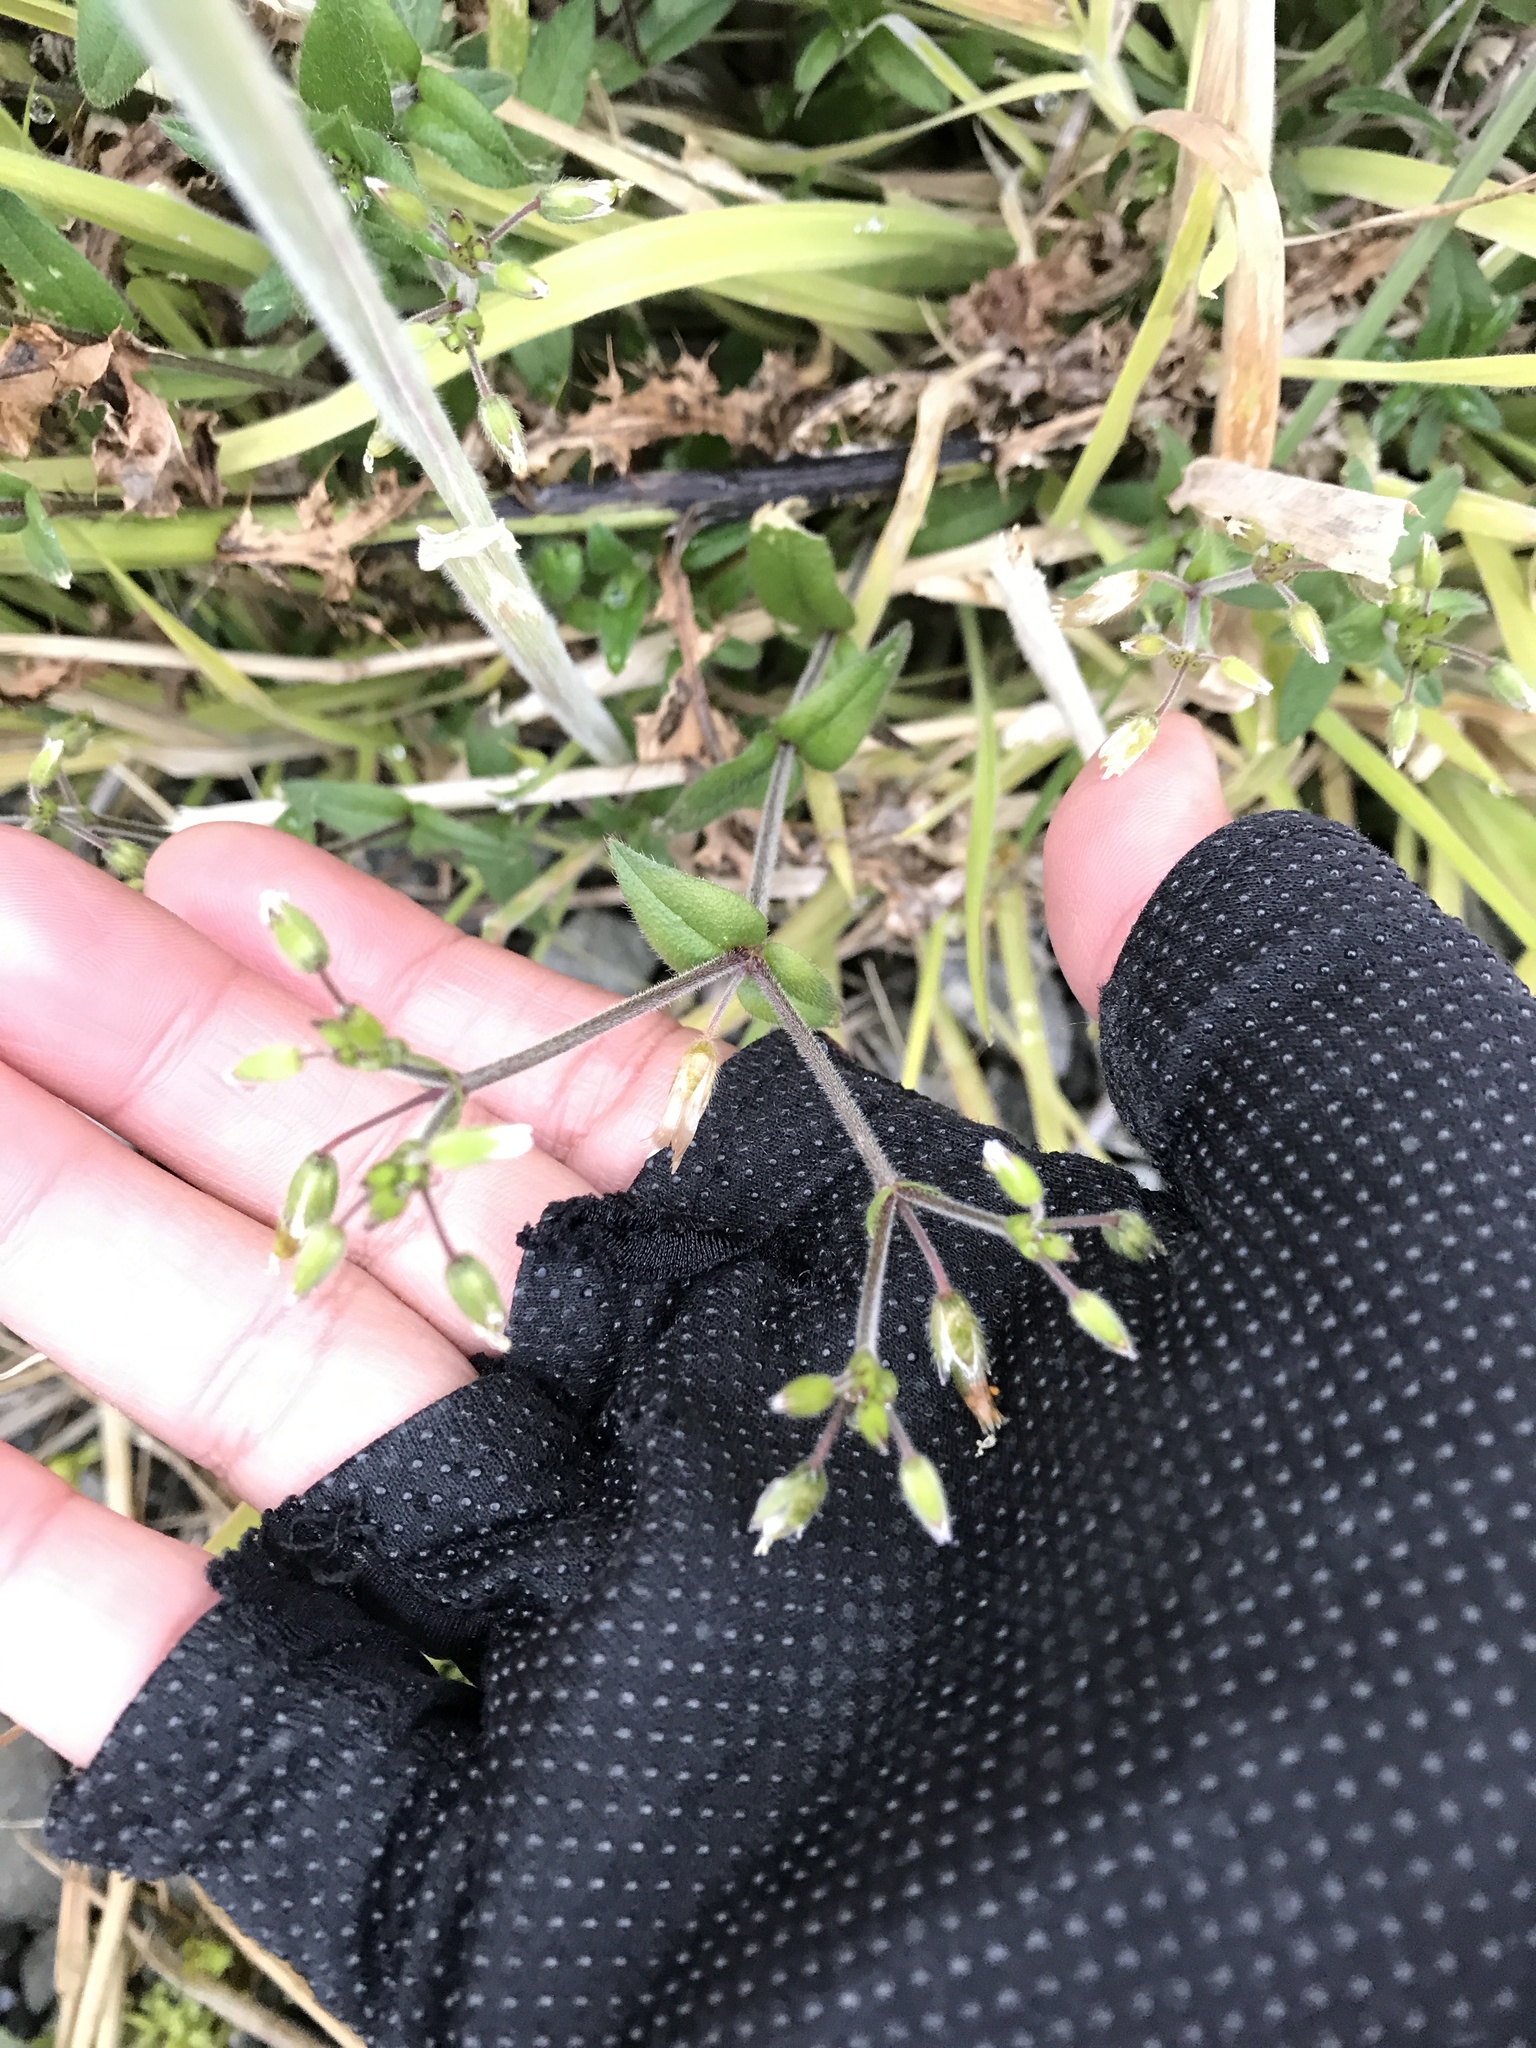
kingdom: Plantae
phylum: Tracheophyta
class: Magnoliopsida
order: Caryophyllales
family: Caryophyllaceae
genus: Cerastium
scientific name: Cerastium fontanum
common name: Common mouse-ear
